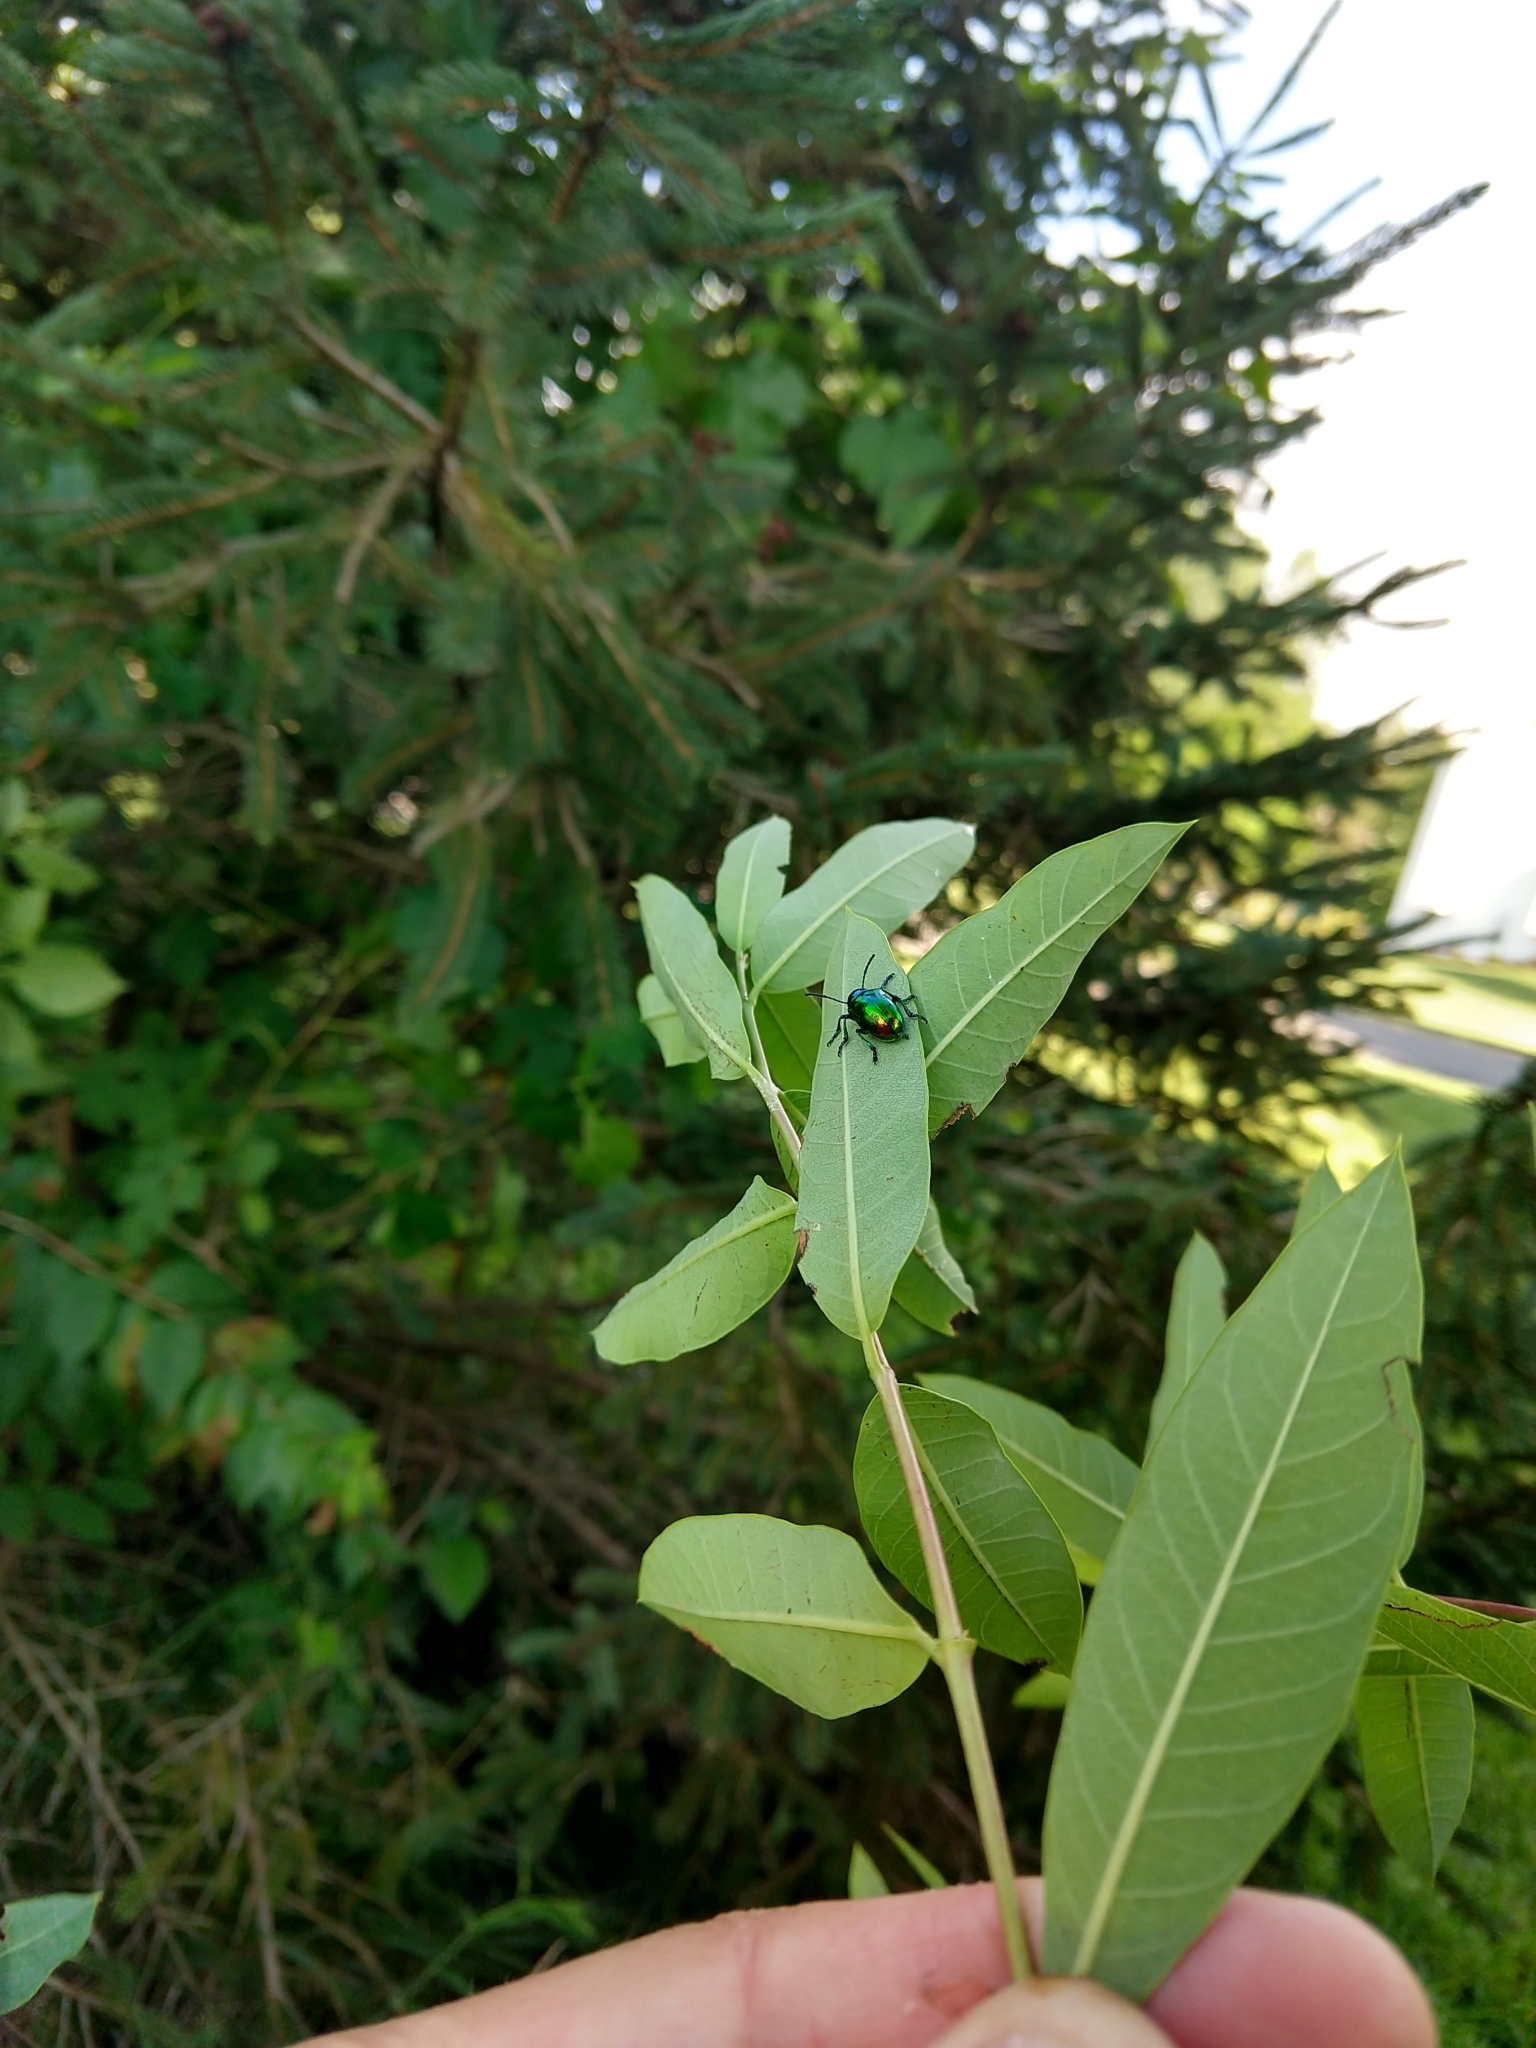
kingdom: Animalia
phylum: Arthropoda
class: Insecta
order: Coleoptera
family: Chrysomelidae
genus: Chrysochus
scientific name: Chrysochus auratus
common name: Dogbane leaf beetle
